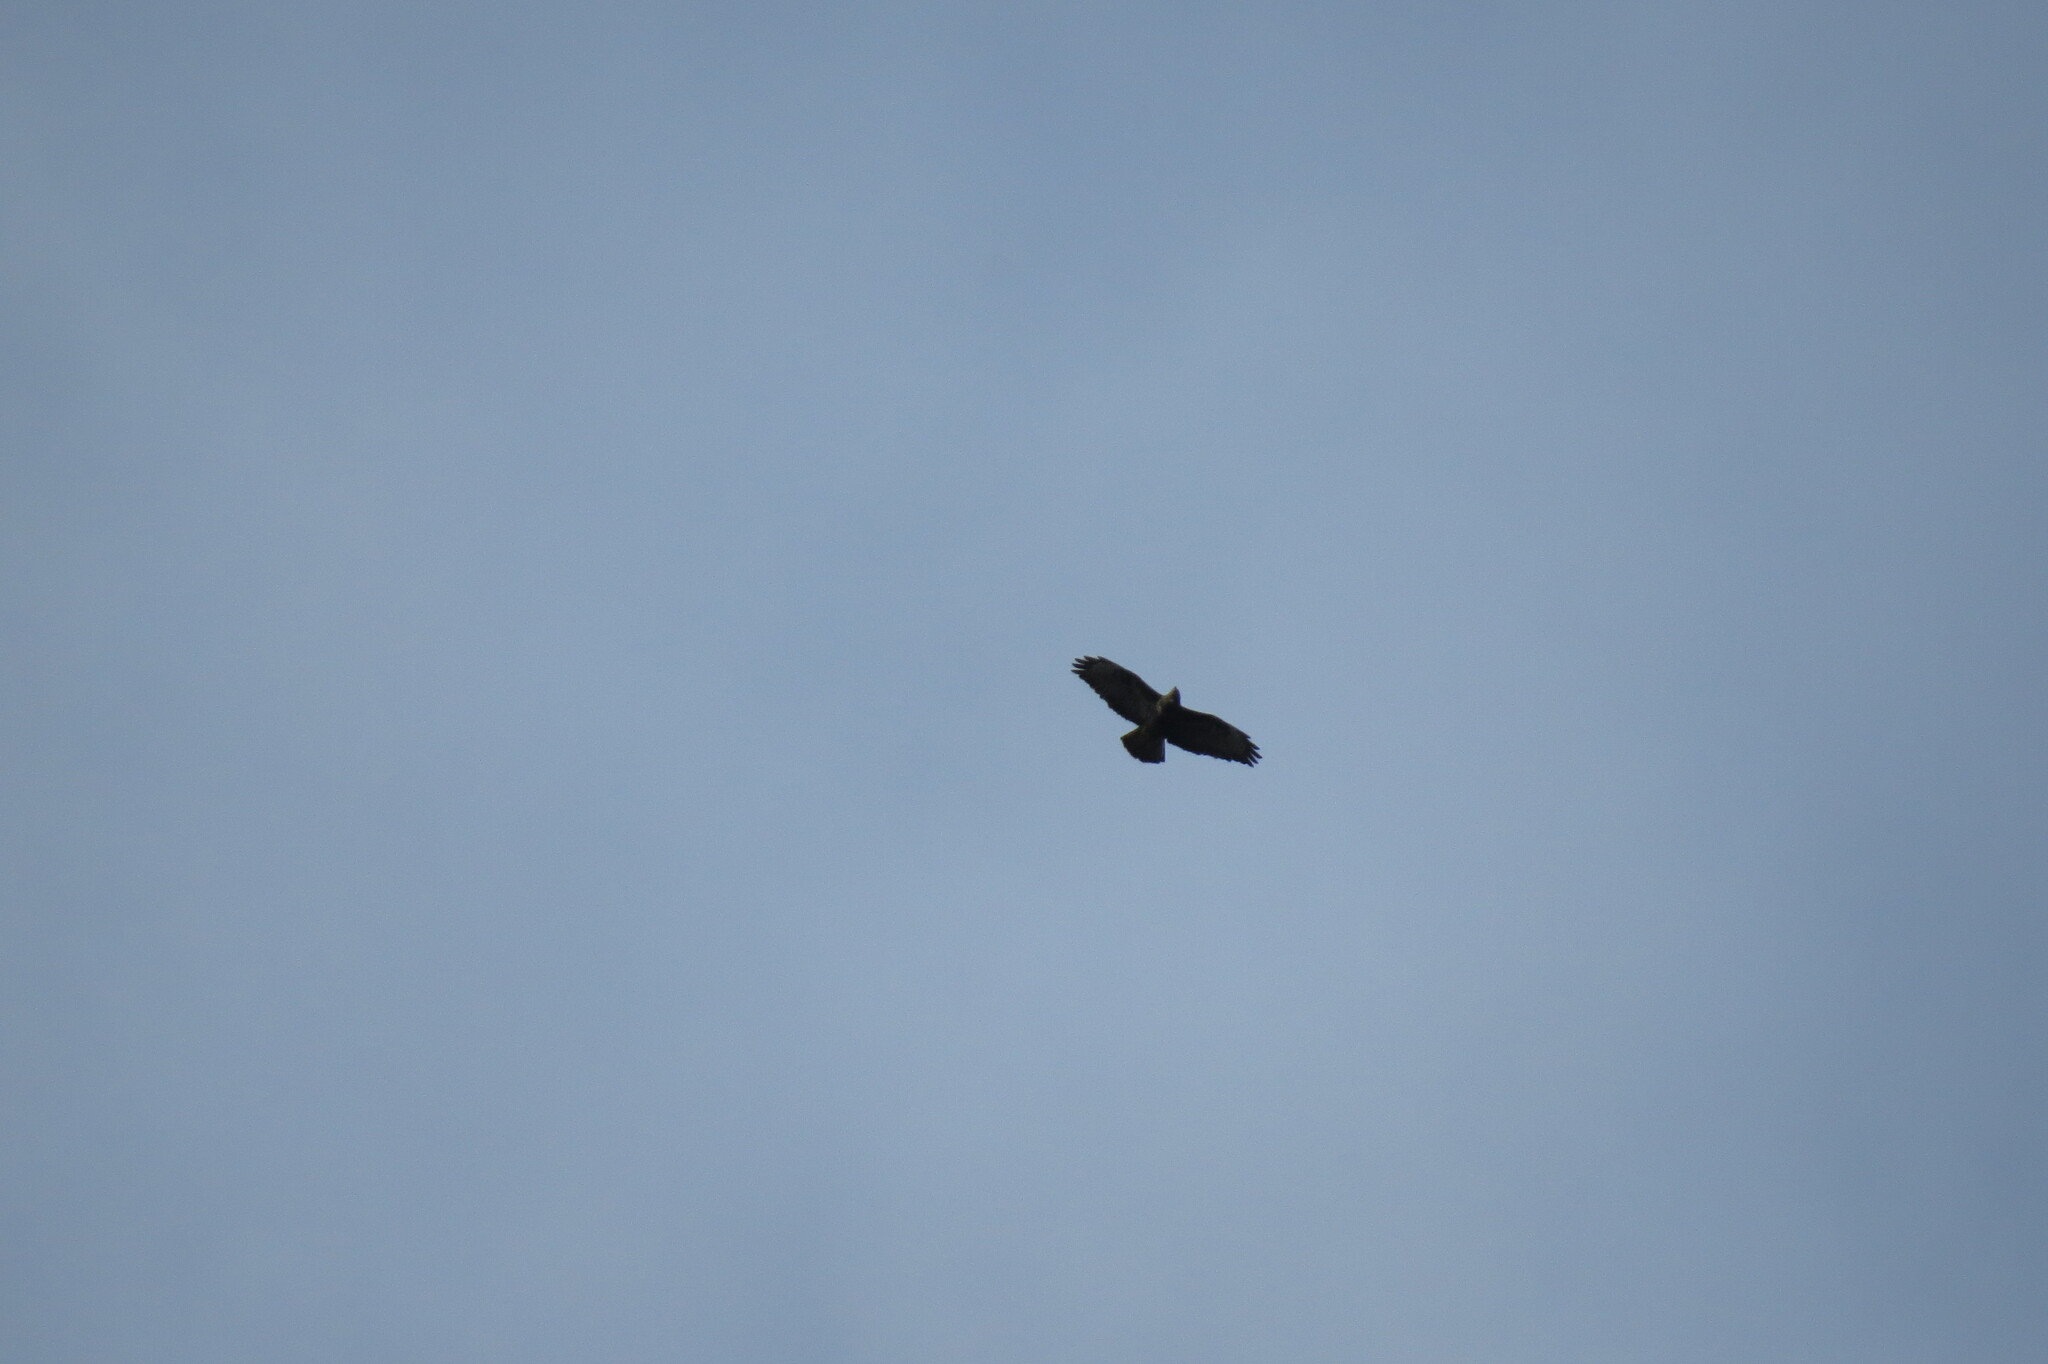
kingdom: Animalia
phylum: Chordata
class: Aves
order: Accipitriformes
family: Accipitridae
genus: Buteo
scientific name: Buteo buteo
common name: Common buzzard
